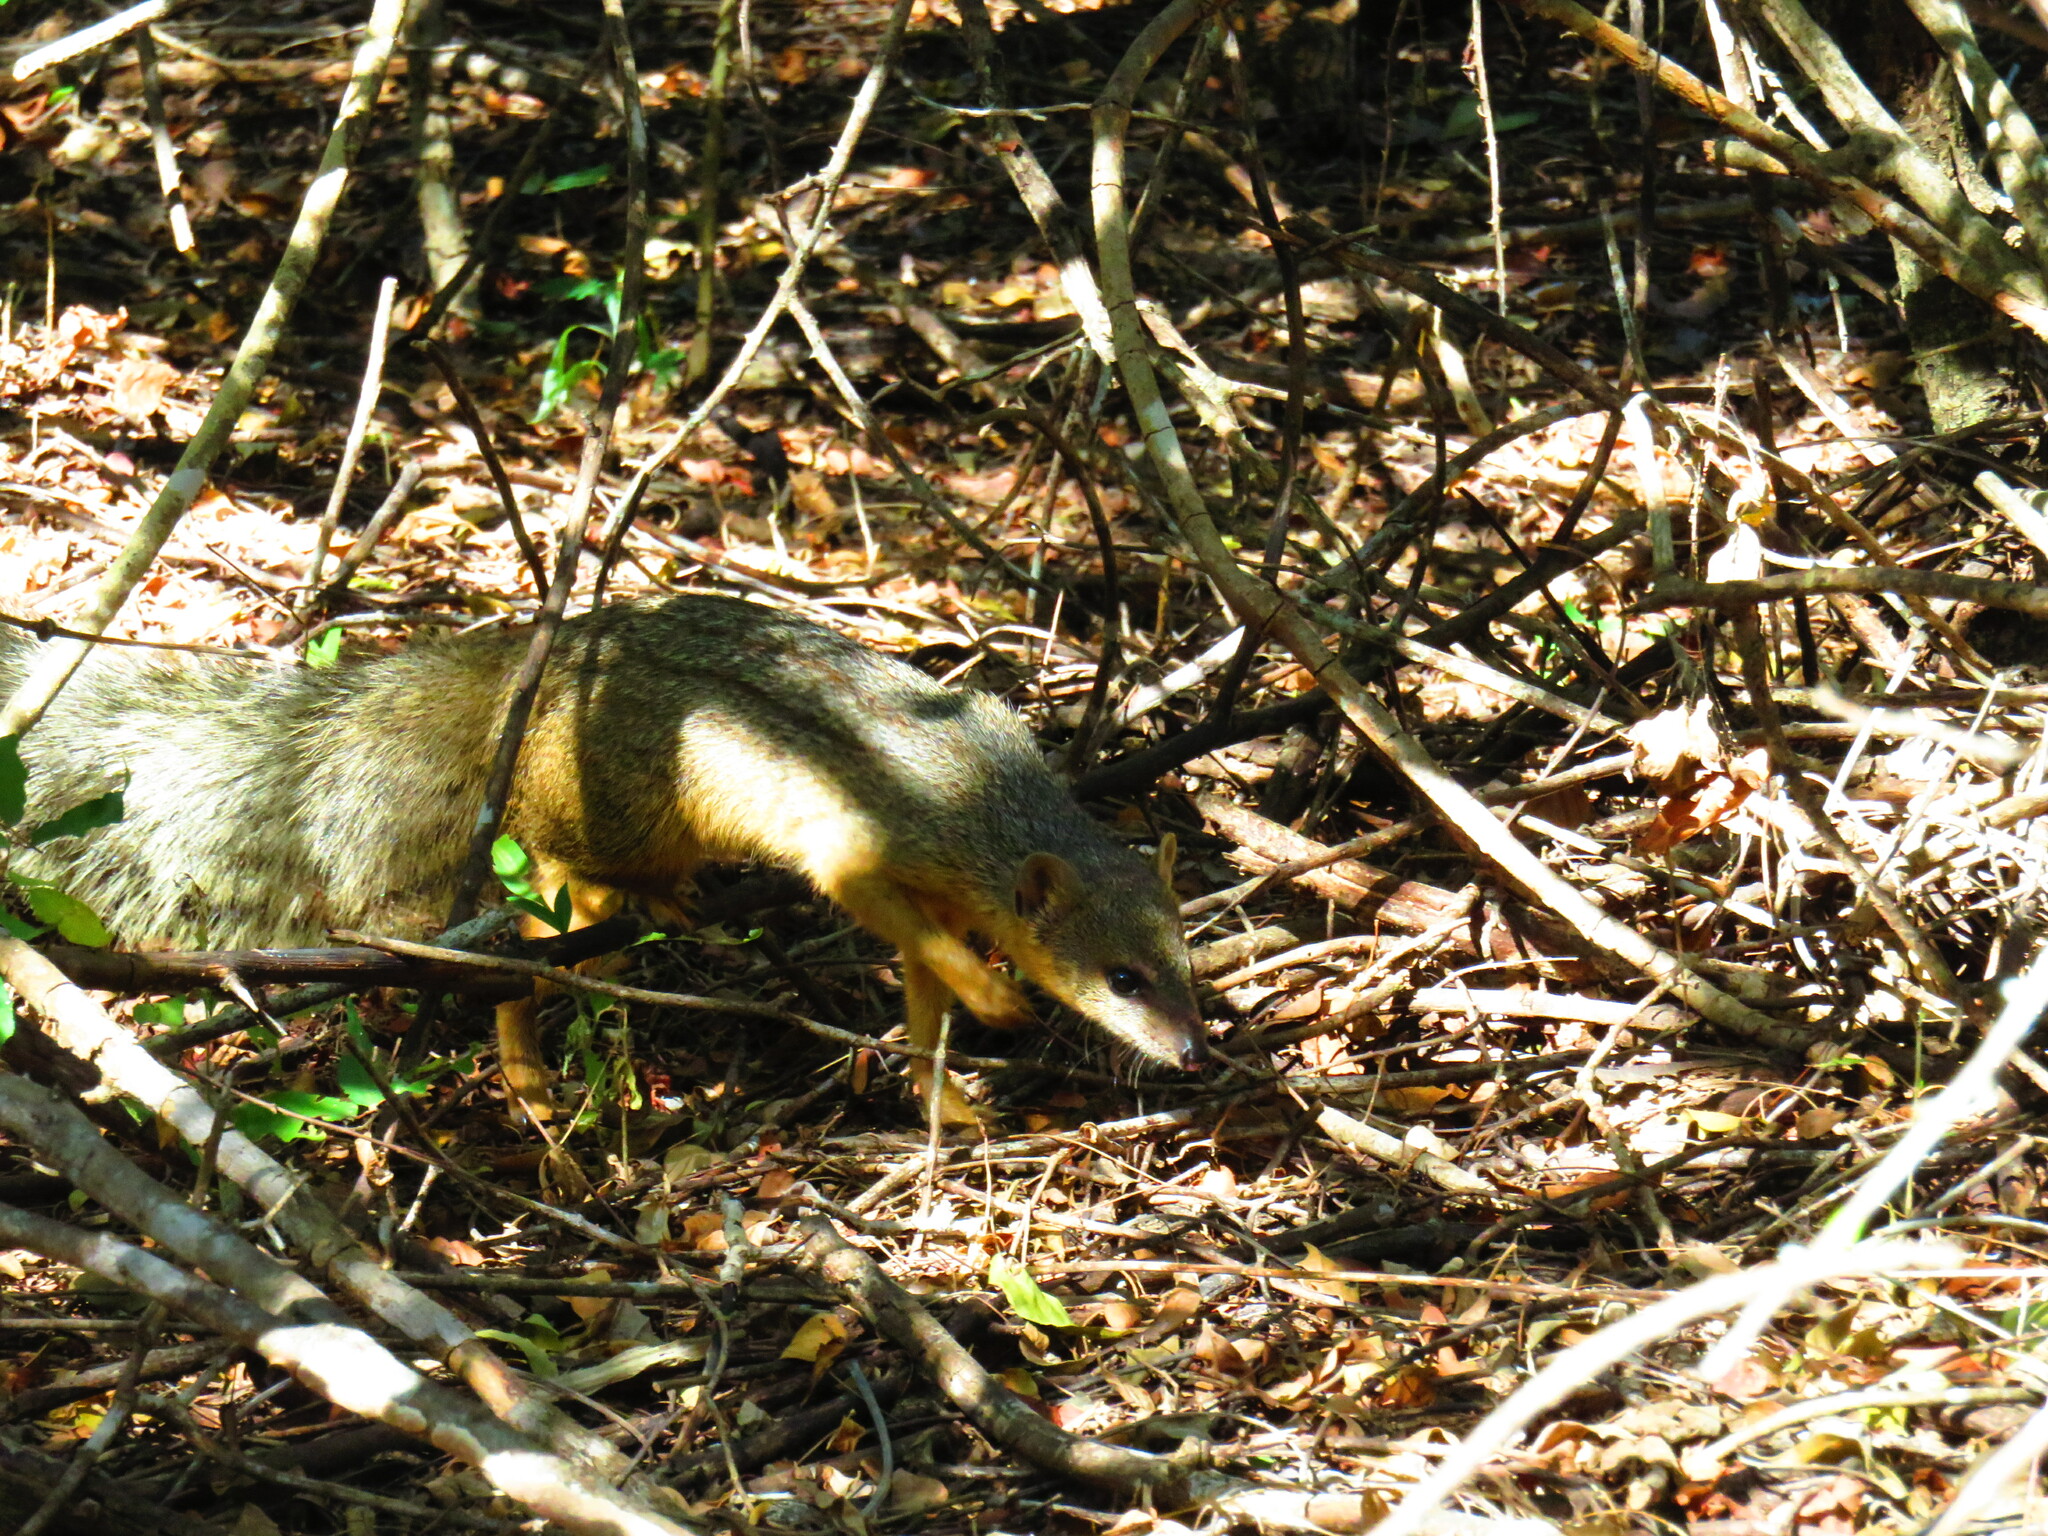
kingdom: Animalia
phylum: Chordata
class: Mammalia
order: Carnivora
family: Eupleridae
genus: Mungotictis
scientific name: Mungotictis decemlineata
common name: Narrow-striped mongoose
